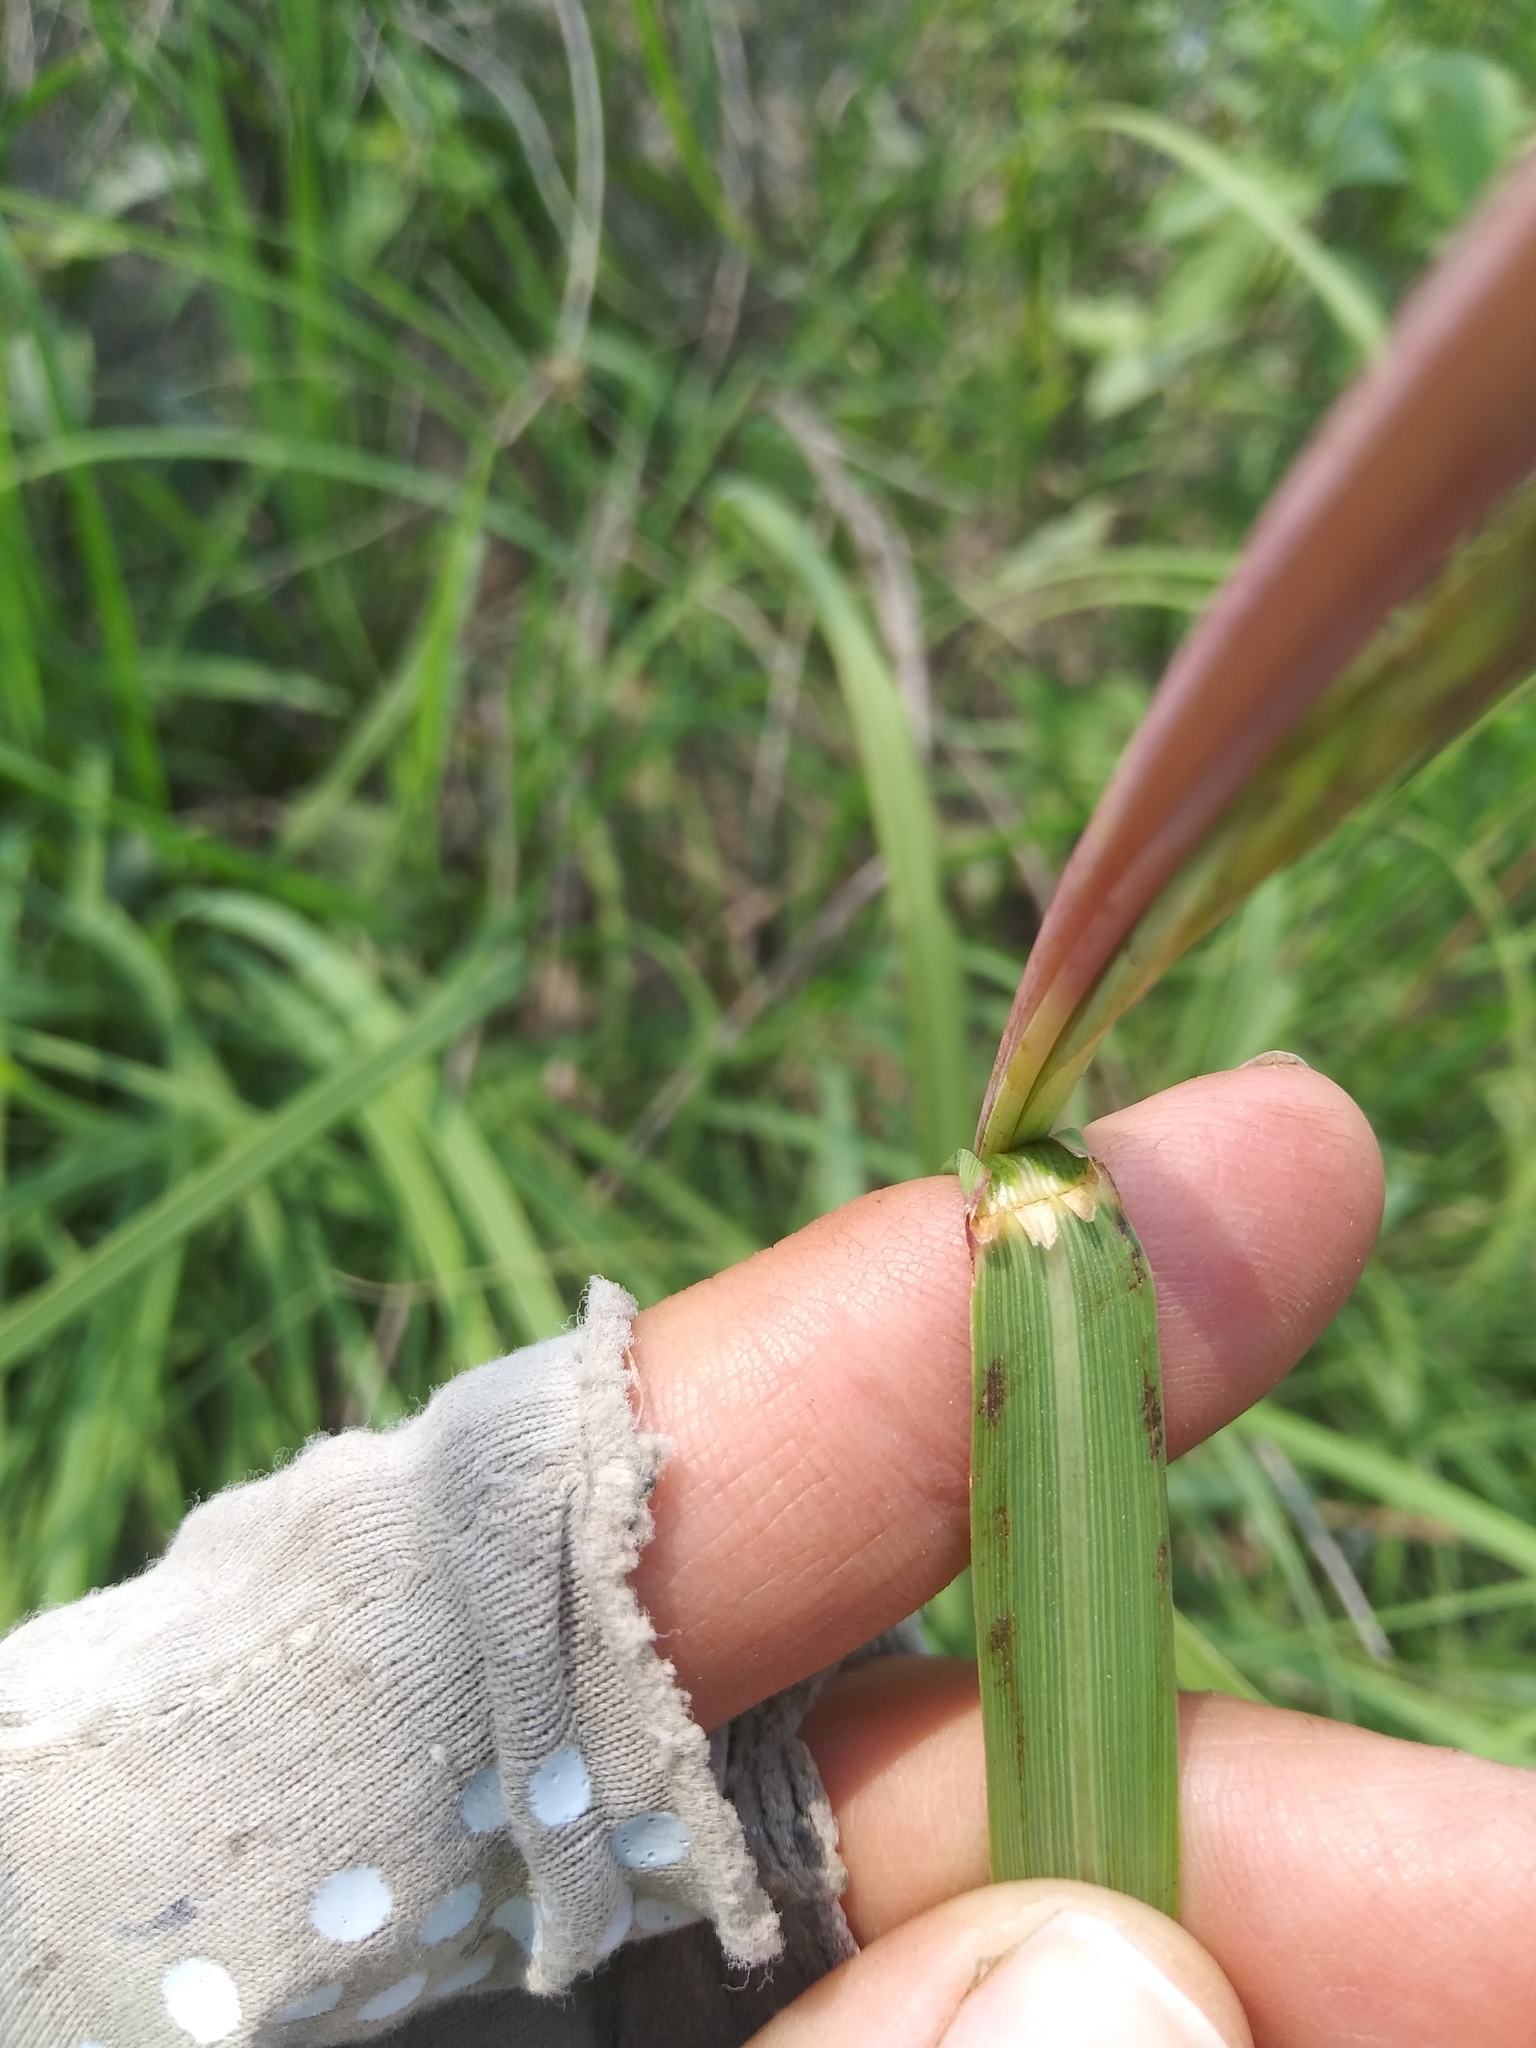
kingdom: Plantae
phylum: Tracheophyta
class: Liliopsida
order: Poales
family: Poaceae
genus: Andropogon
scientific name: Andropogon gerardi
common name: Big bluestem
